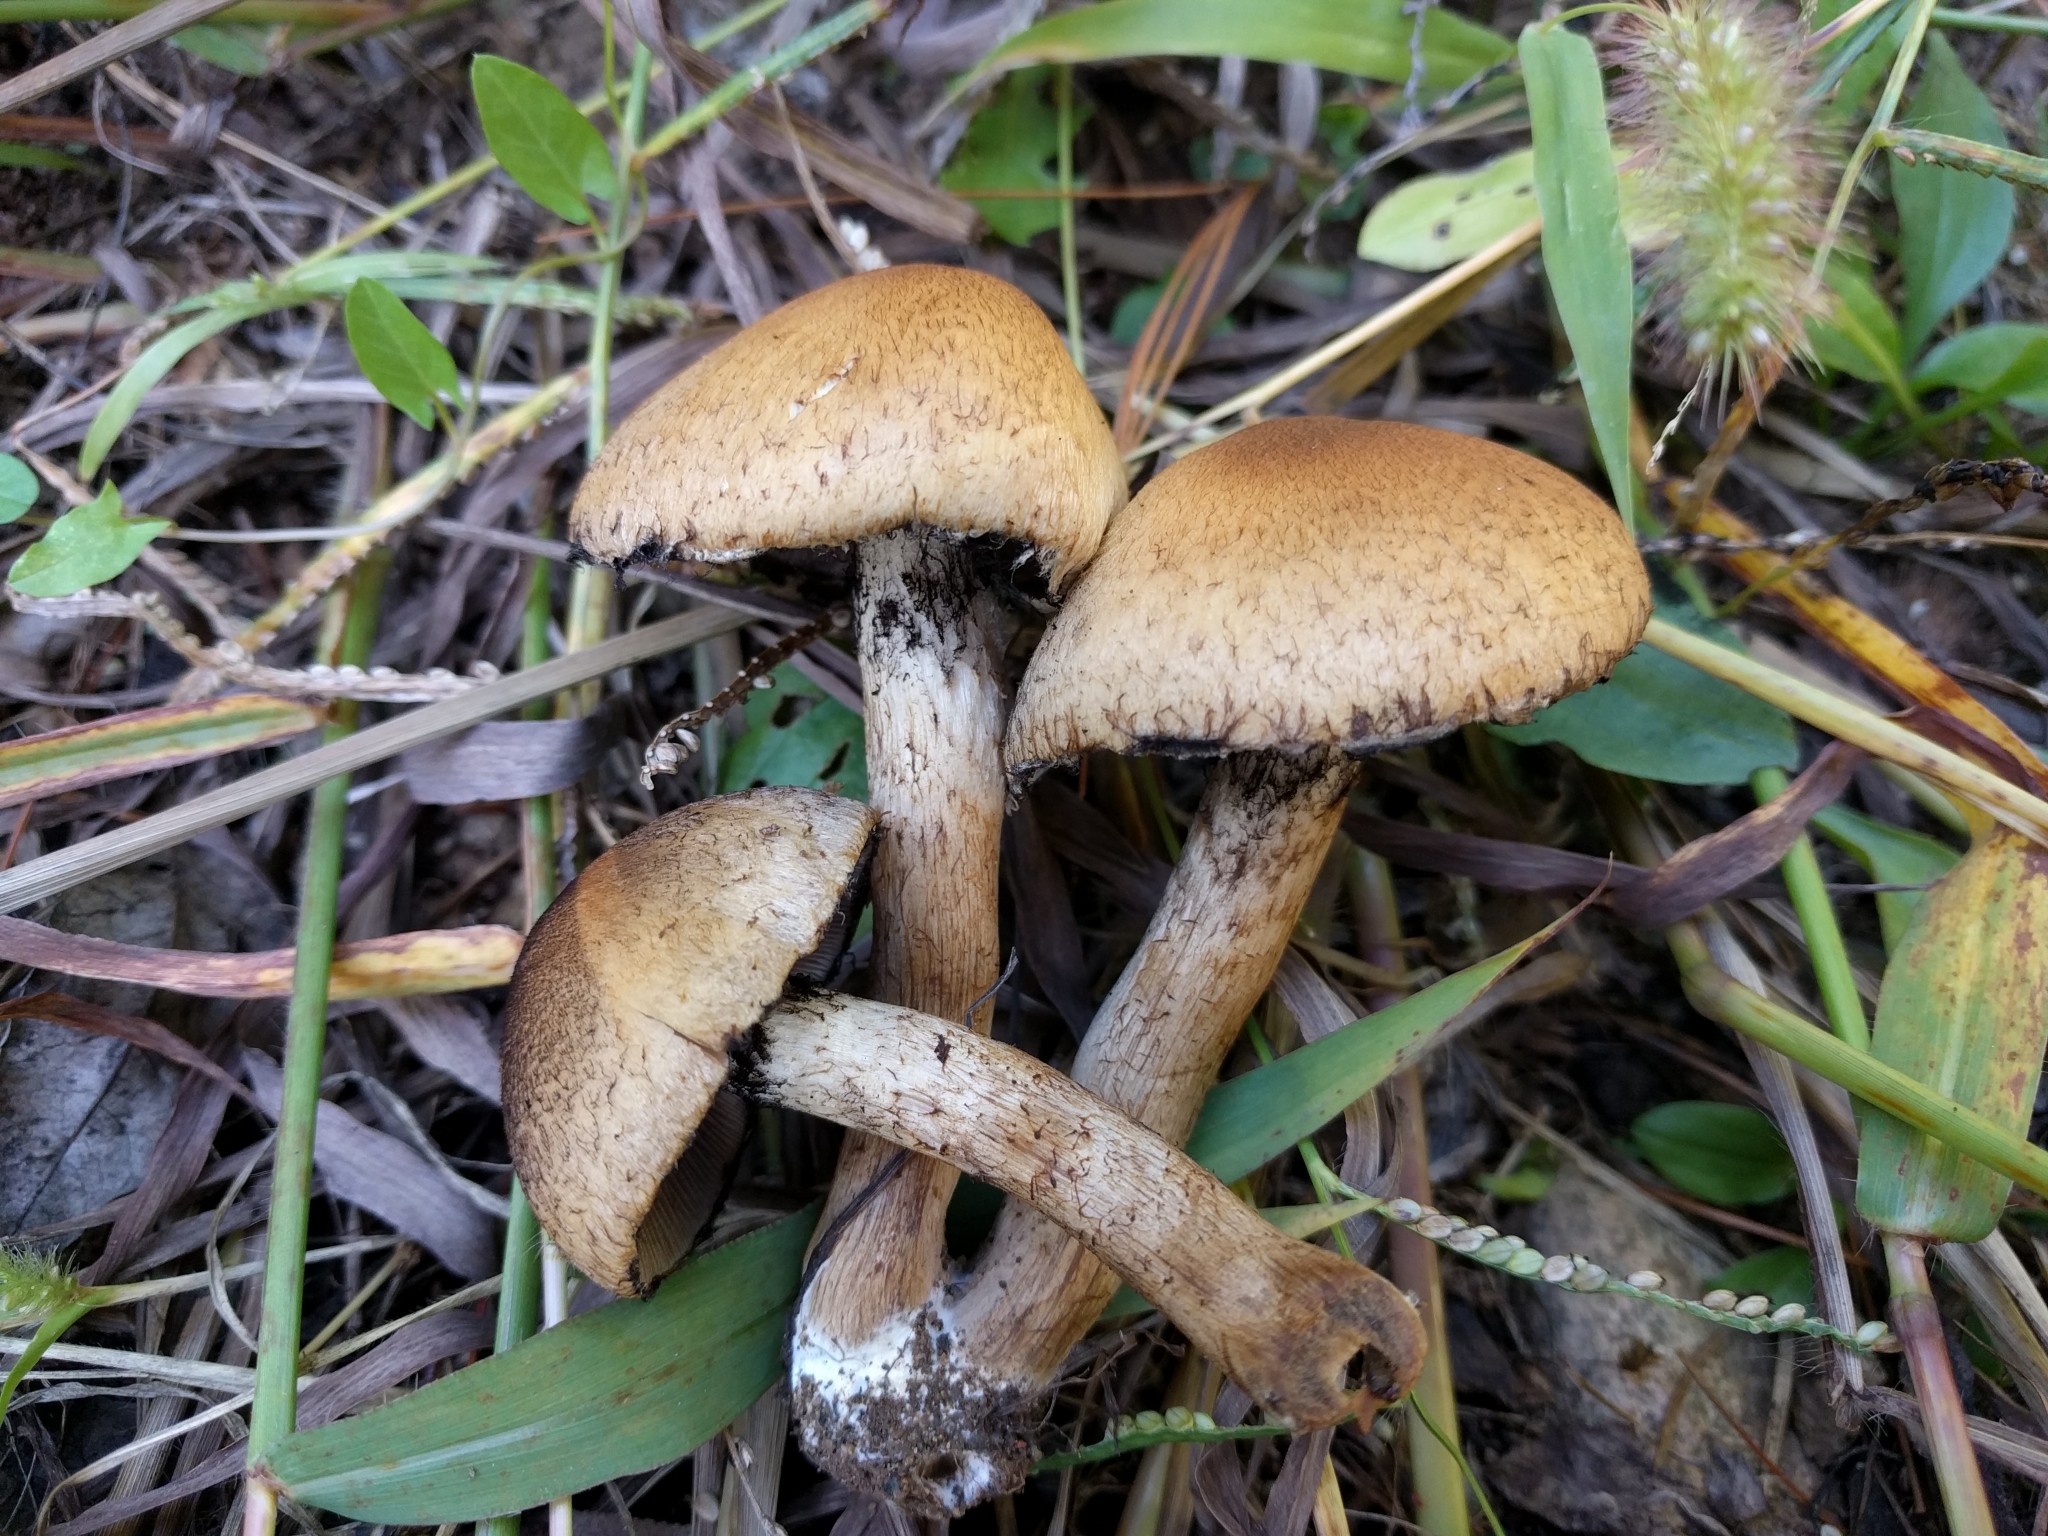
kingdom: Fungi
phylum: Basidiomycota
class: Agaricomycetes
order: Agaricales
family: Psathyrellaceae
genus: Lacrymaria
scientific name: Lacrymaria lacrymabunda
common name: Weeping widow
